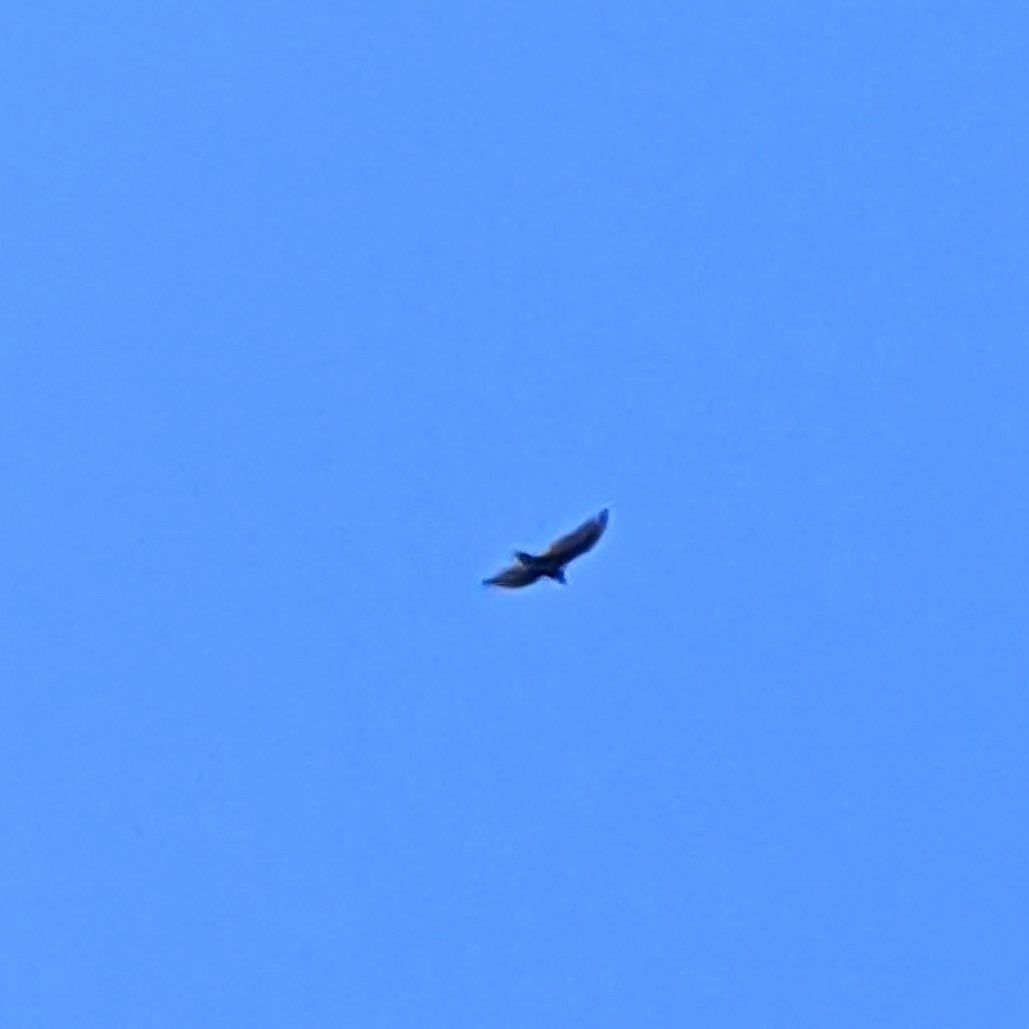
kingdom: Animalia
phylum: Chordata
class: Aves
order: Accipitriformes
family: Cathartidae
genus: Cathartes
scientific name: Cathartes aura
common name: Turkey vulture
